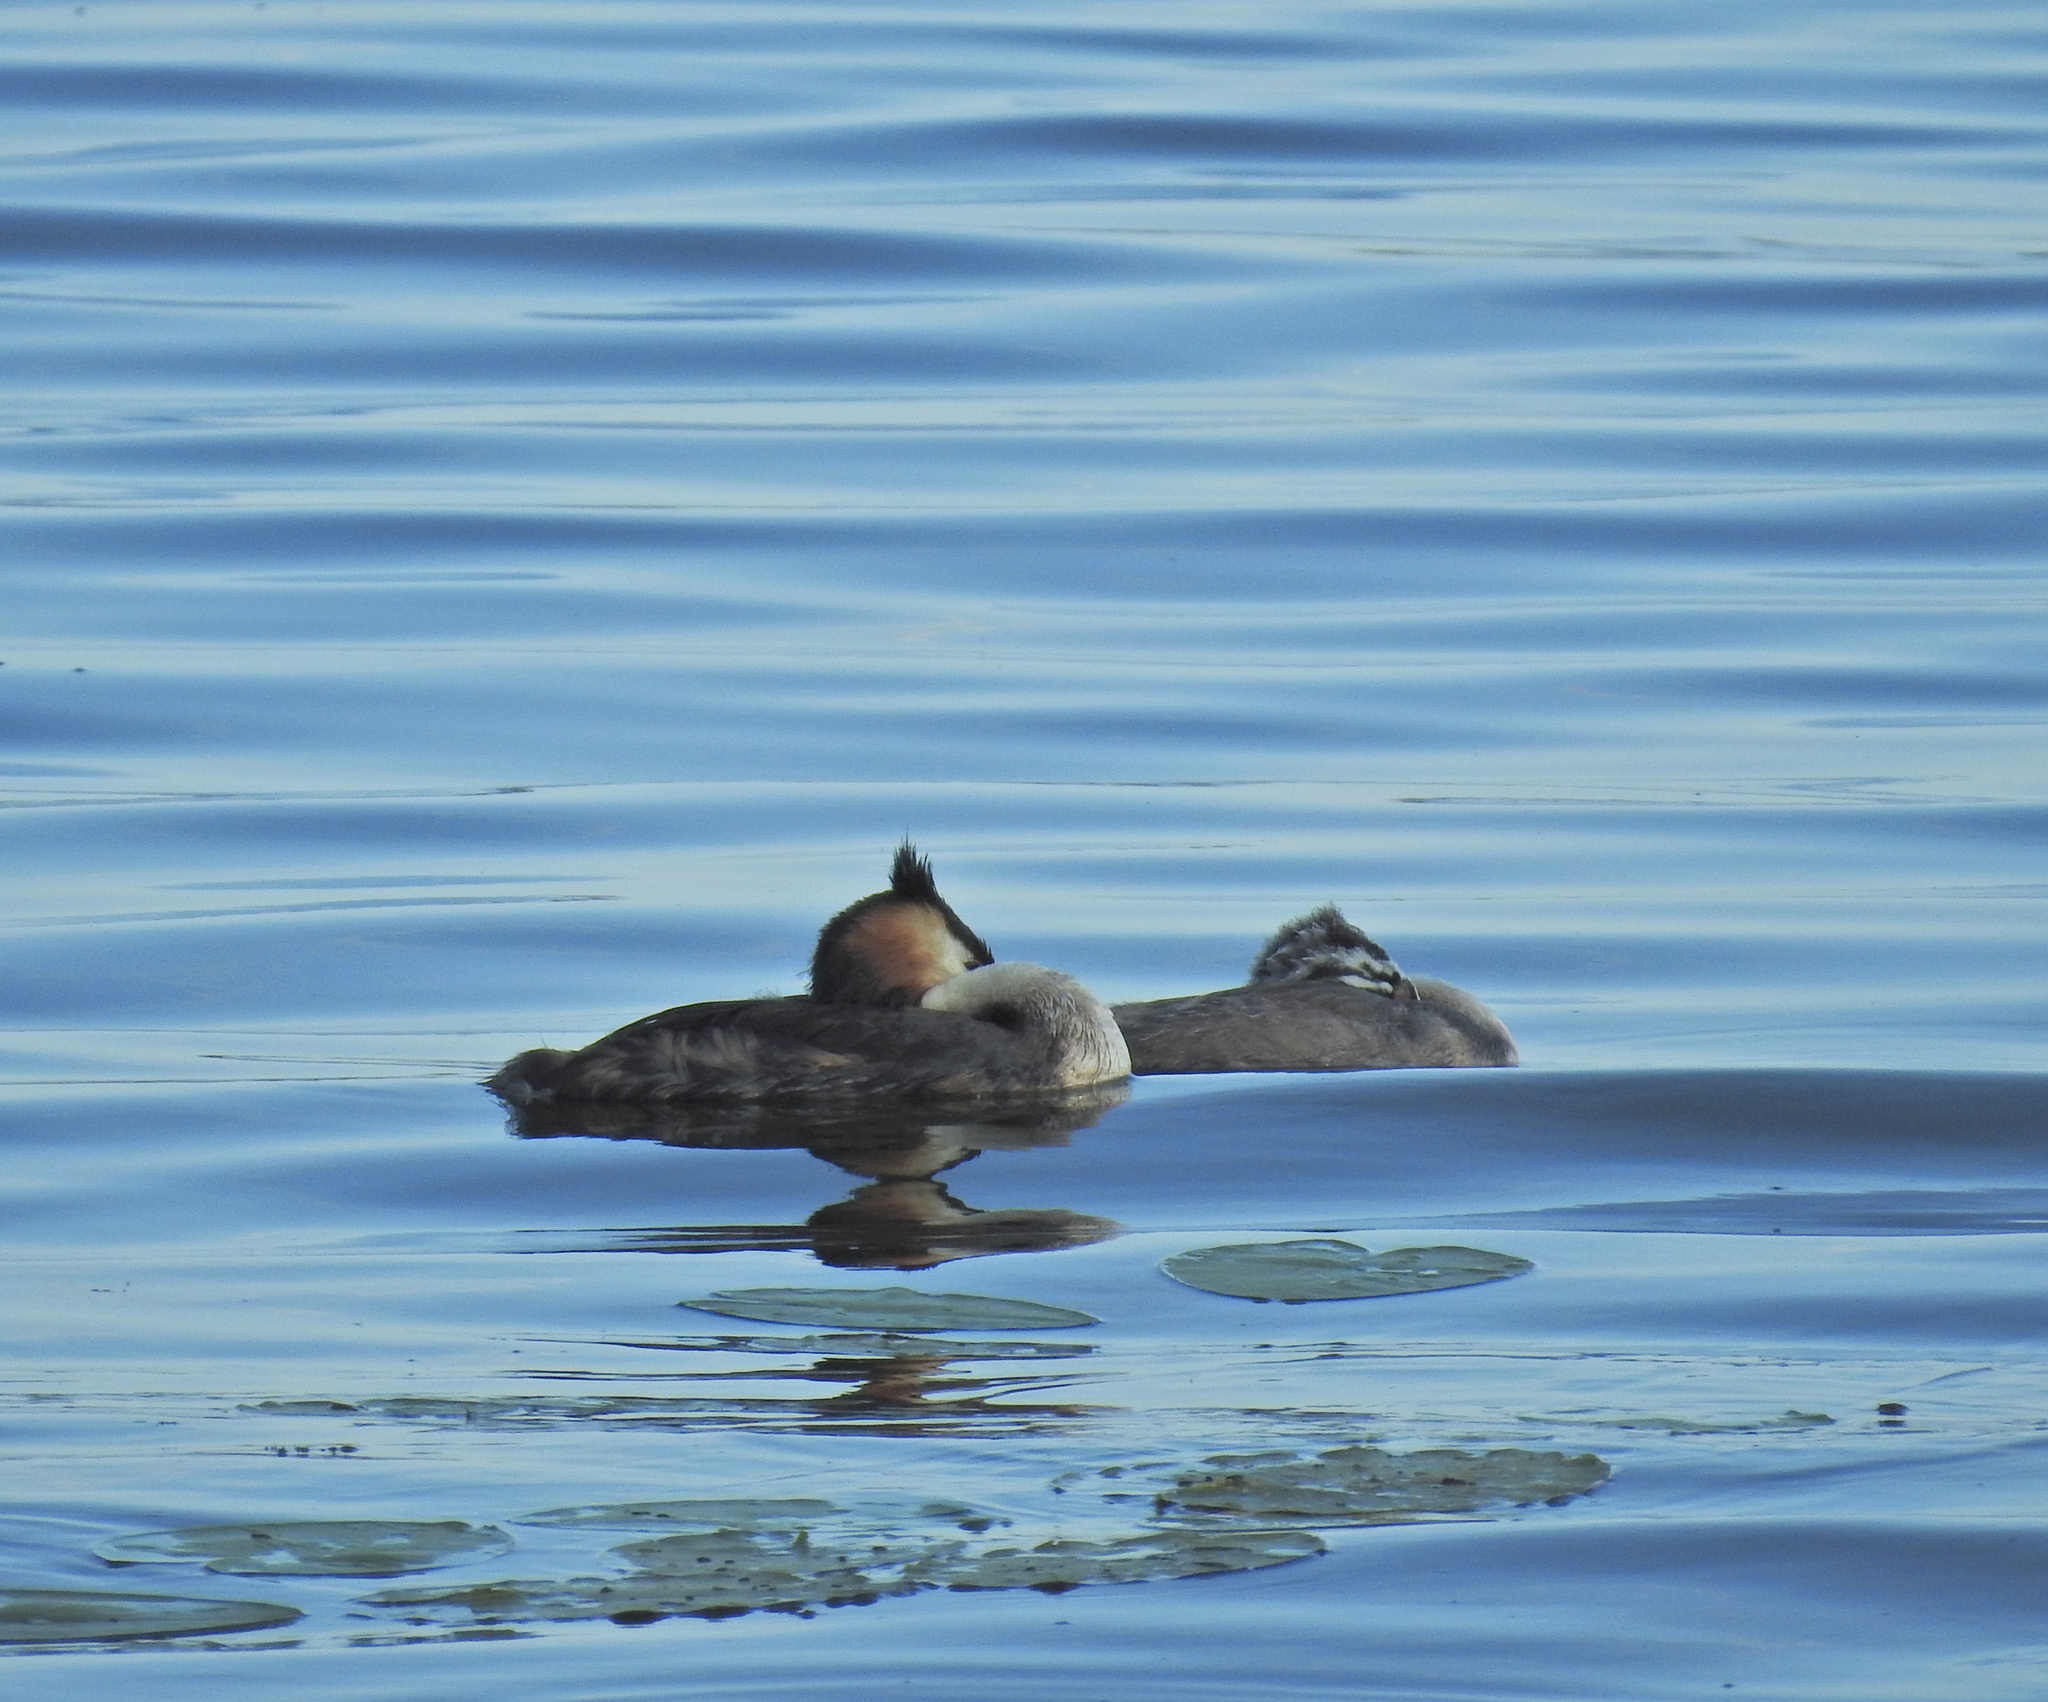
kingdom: Animalia
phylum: Chordata
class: Aves
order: Podicipediformes
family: Podicipedidae
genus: Podiceps
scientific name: Podiceps cristatus
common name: Great crested grebe
